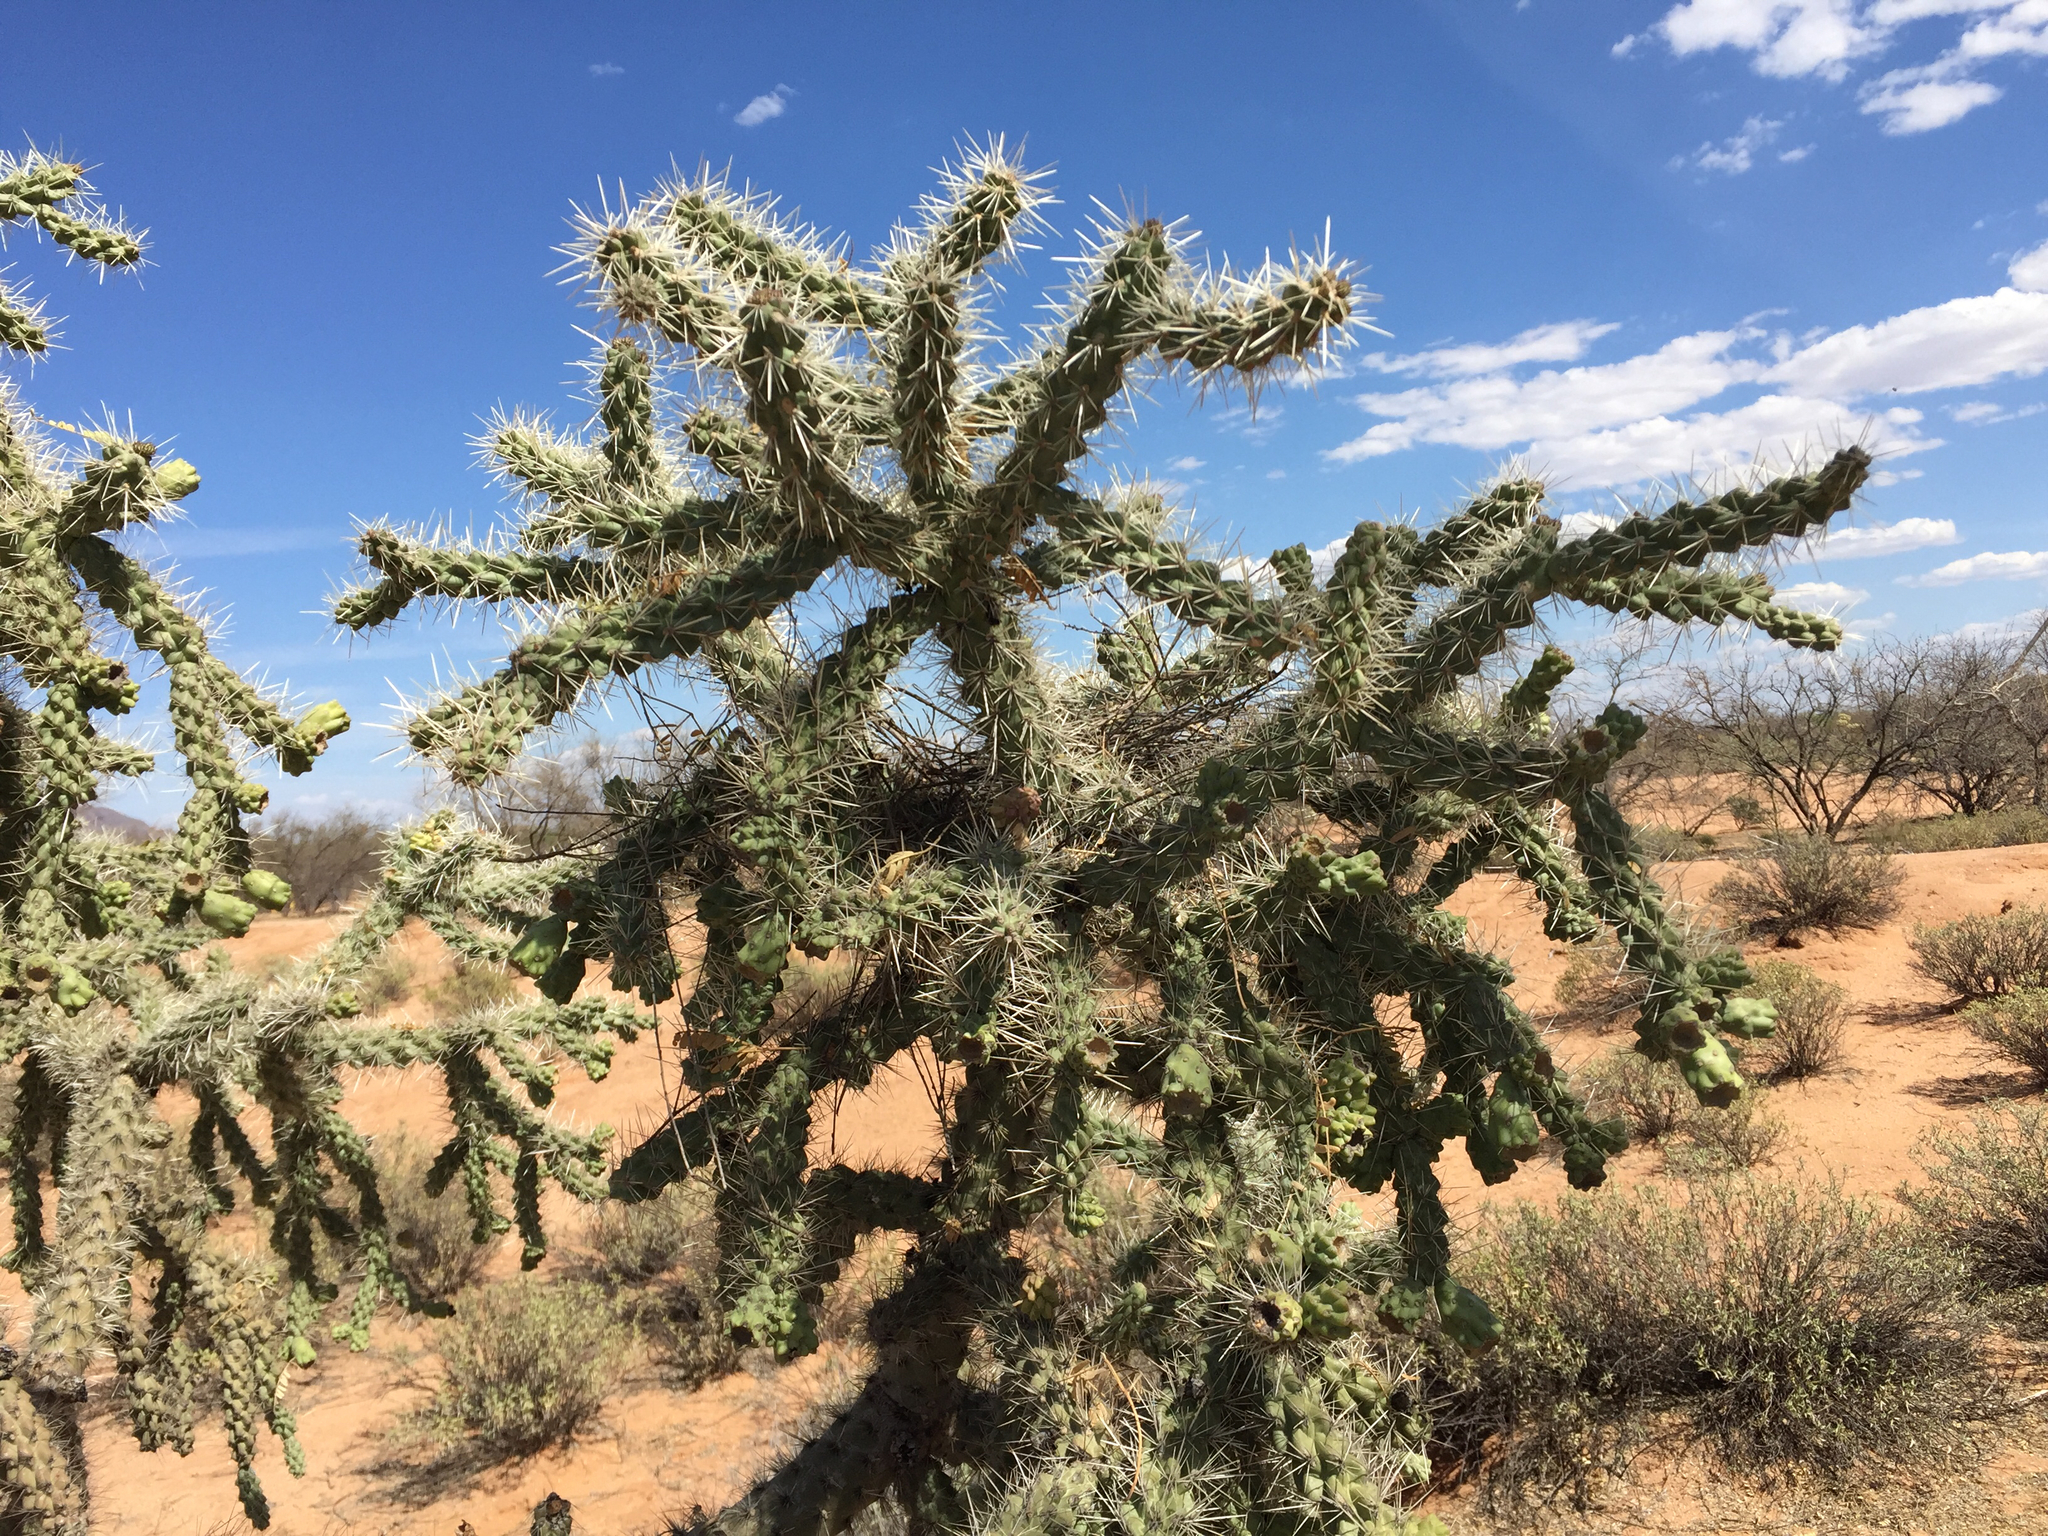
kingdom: Plantae
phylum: Tracheophyta
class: Magnoliopsida
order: Caryophyllales
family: Cactaceae
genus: Cylindropuntia
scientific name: Cylindropuntia fulgida
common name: Jumping cholla
